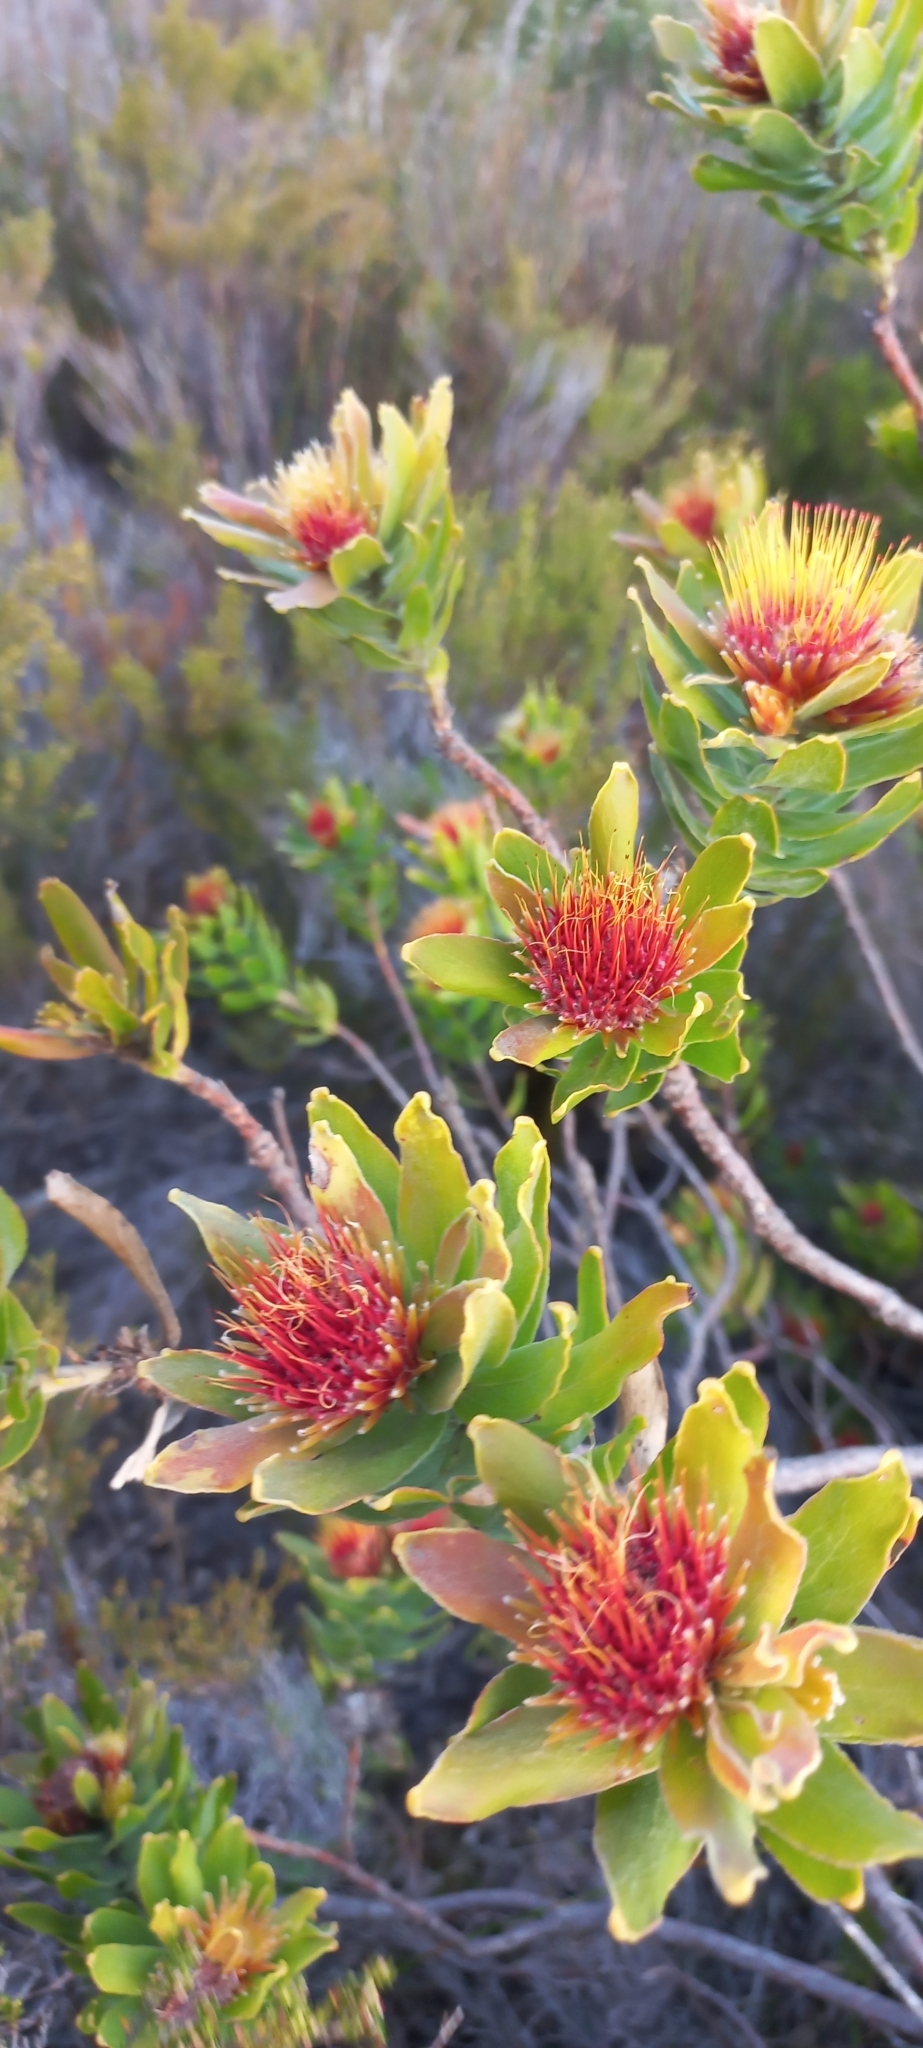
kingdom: Plantae
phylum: Tracheophyta
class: Magnoliopsida
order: Proteales
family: Proteaceae
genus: Leucospermum
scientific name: Leucospermum oleifolium
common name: Matches
